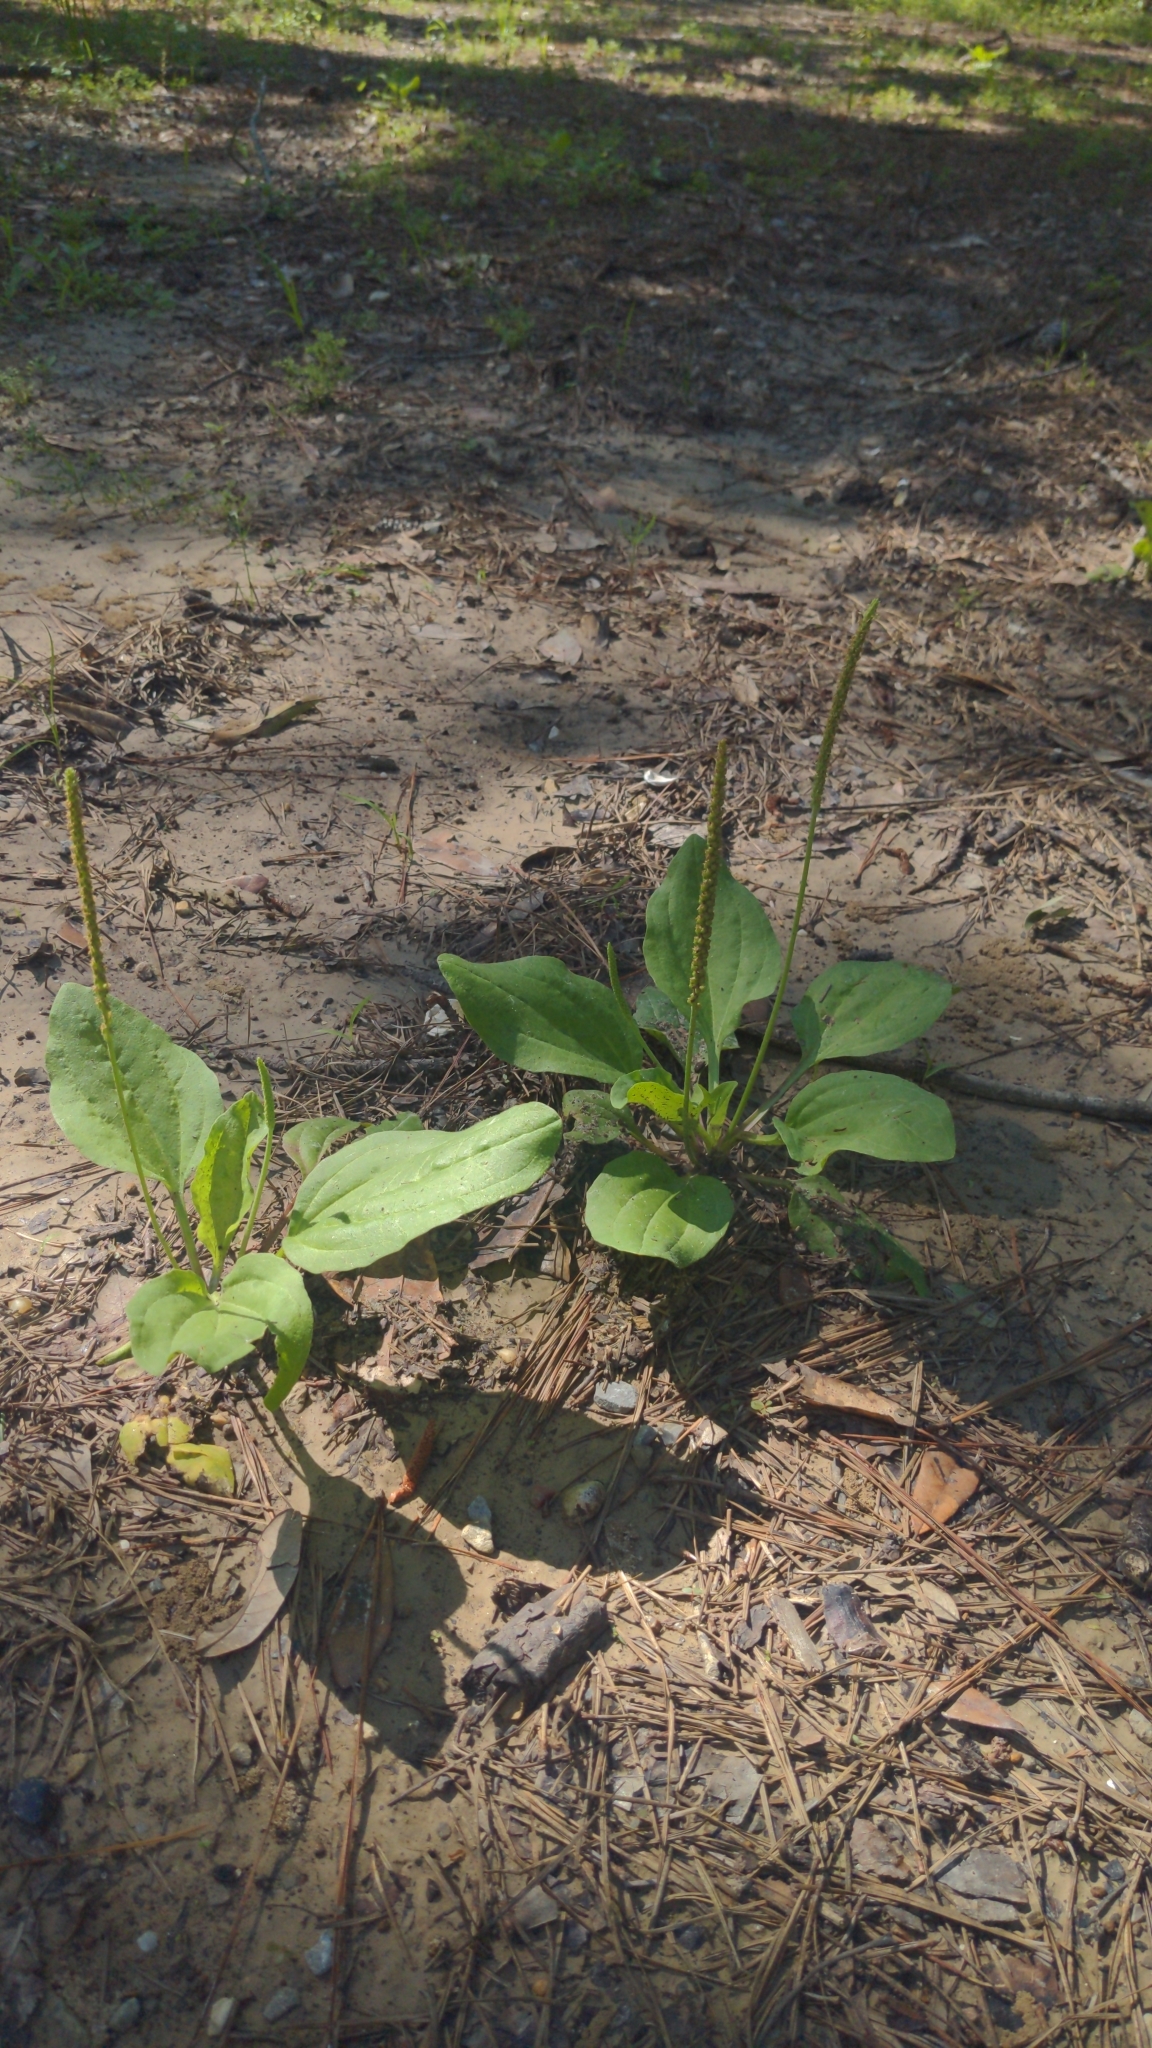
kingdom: Plantae
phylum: Tracheophyta
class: Magnoliopsida
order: Lamiales
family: Plantaginaceae
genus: Plantago
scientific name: Plantago major
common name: Common plantain
